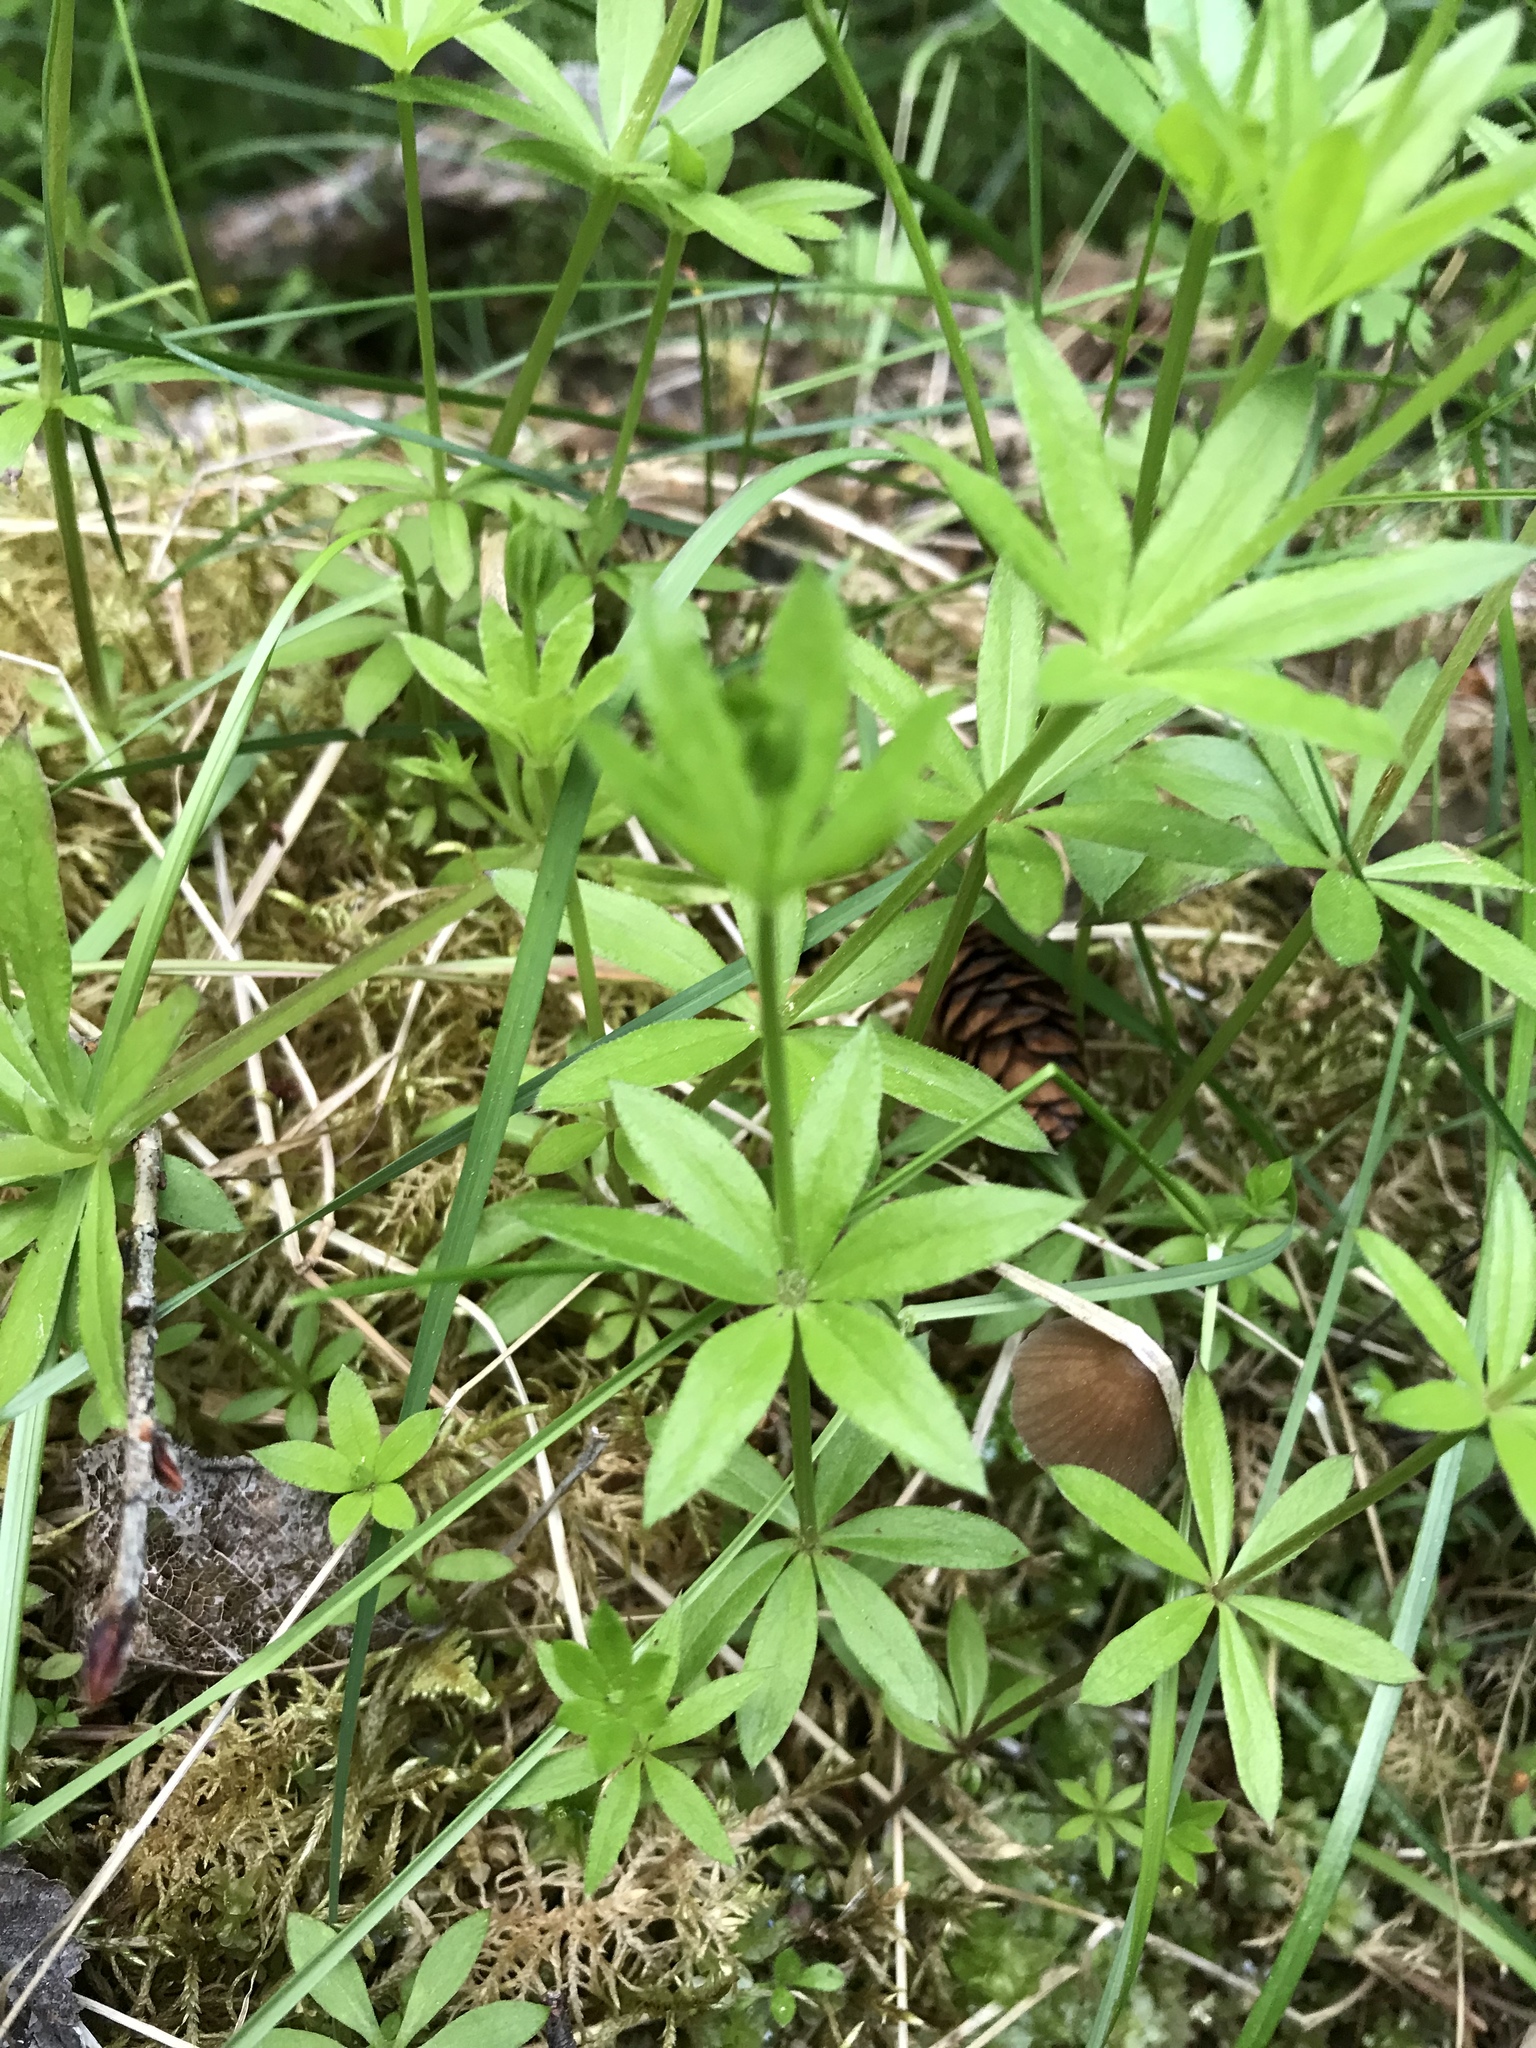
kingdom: Plantae
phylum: Tracheophyta
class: Magnoliopsida
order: Gentianales
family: Rubiaceae
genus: Galium
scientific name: Galium triflorum
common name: Fragrant bedstraw
